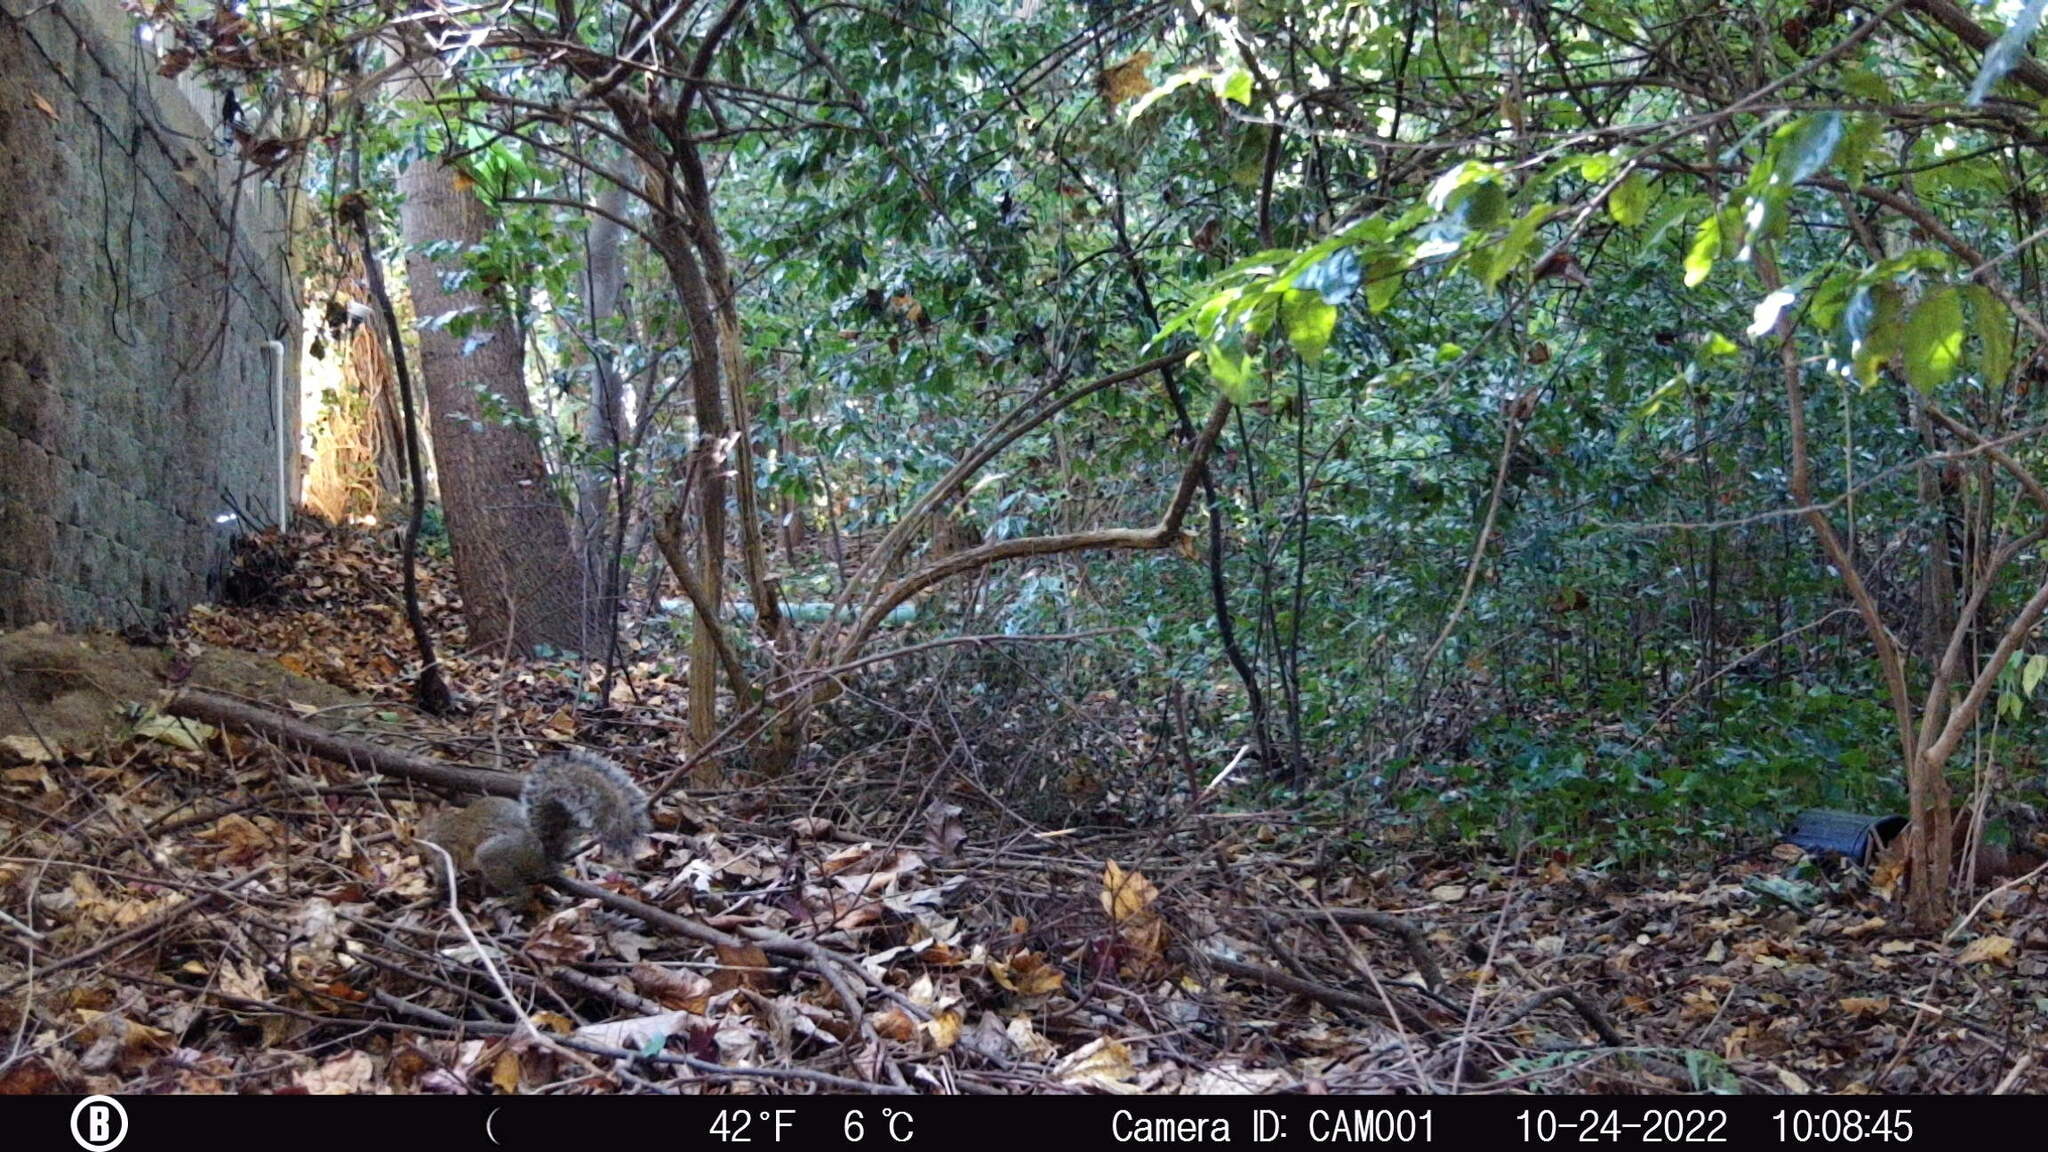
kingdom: Animalia
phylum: Chordata
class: Mammalia
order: Rodentia
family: Sciuridae
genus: Sciurus
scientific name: Sciurus carolinensis
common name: Eastern gray squirrel
